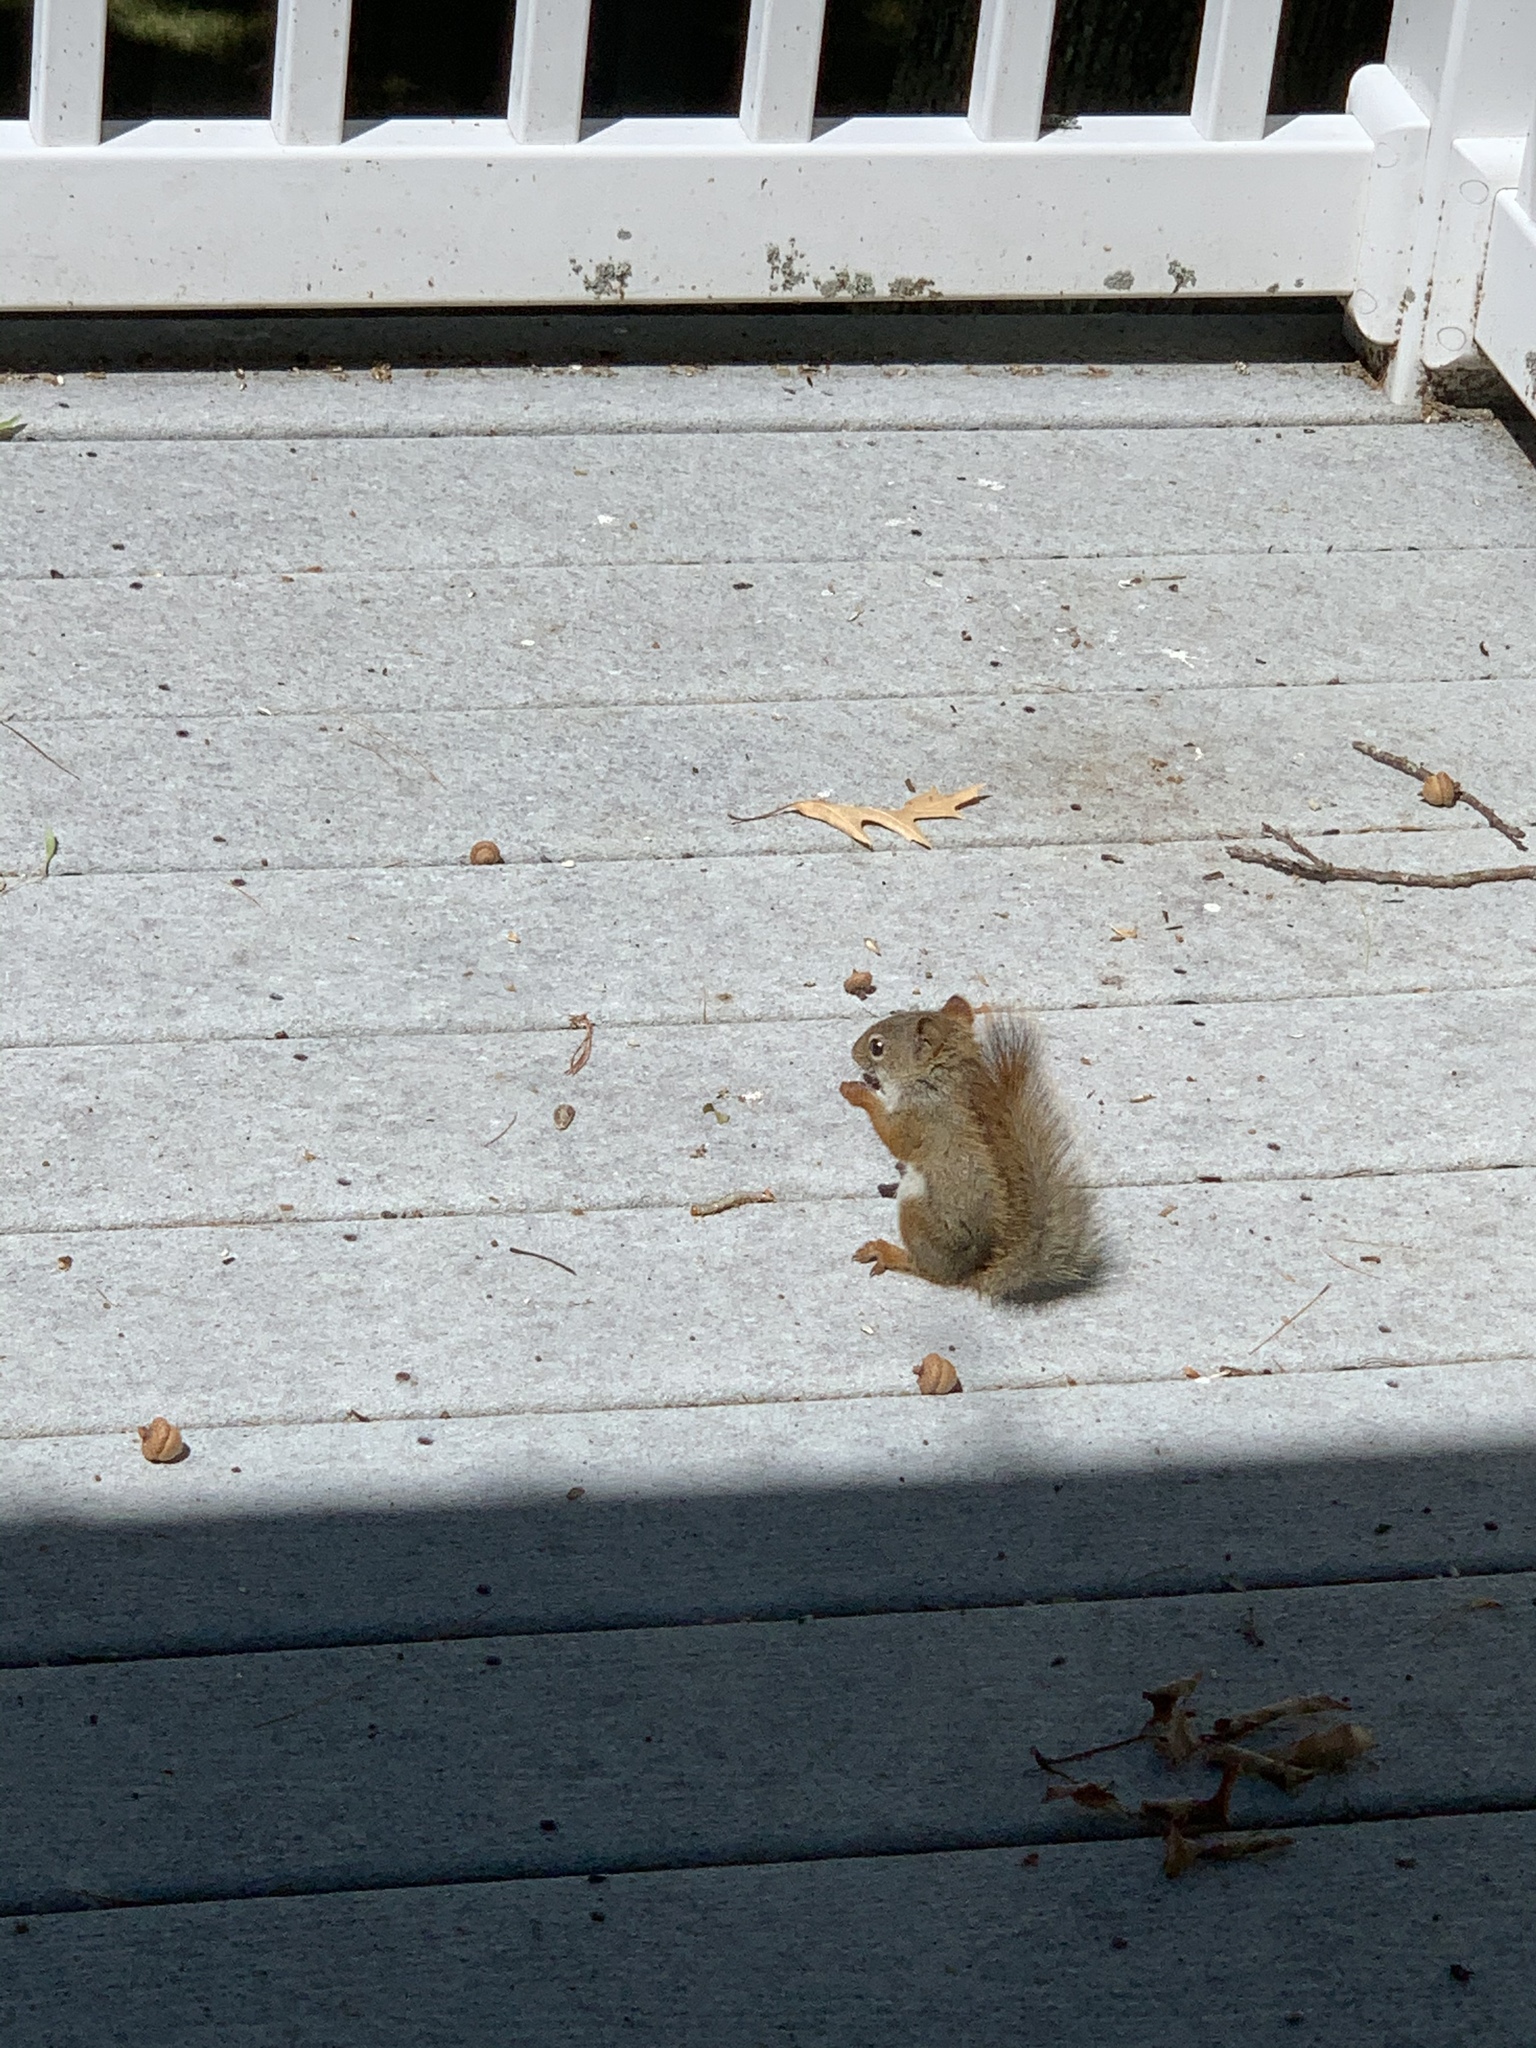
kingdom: Animalia
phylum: Chordata
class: Mammalia
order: Rodentia
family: Sciuridae
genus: Tamiasciurus
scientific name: Tamiasciurus hudsonicus
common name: Red squirrel
